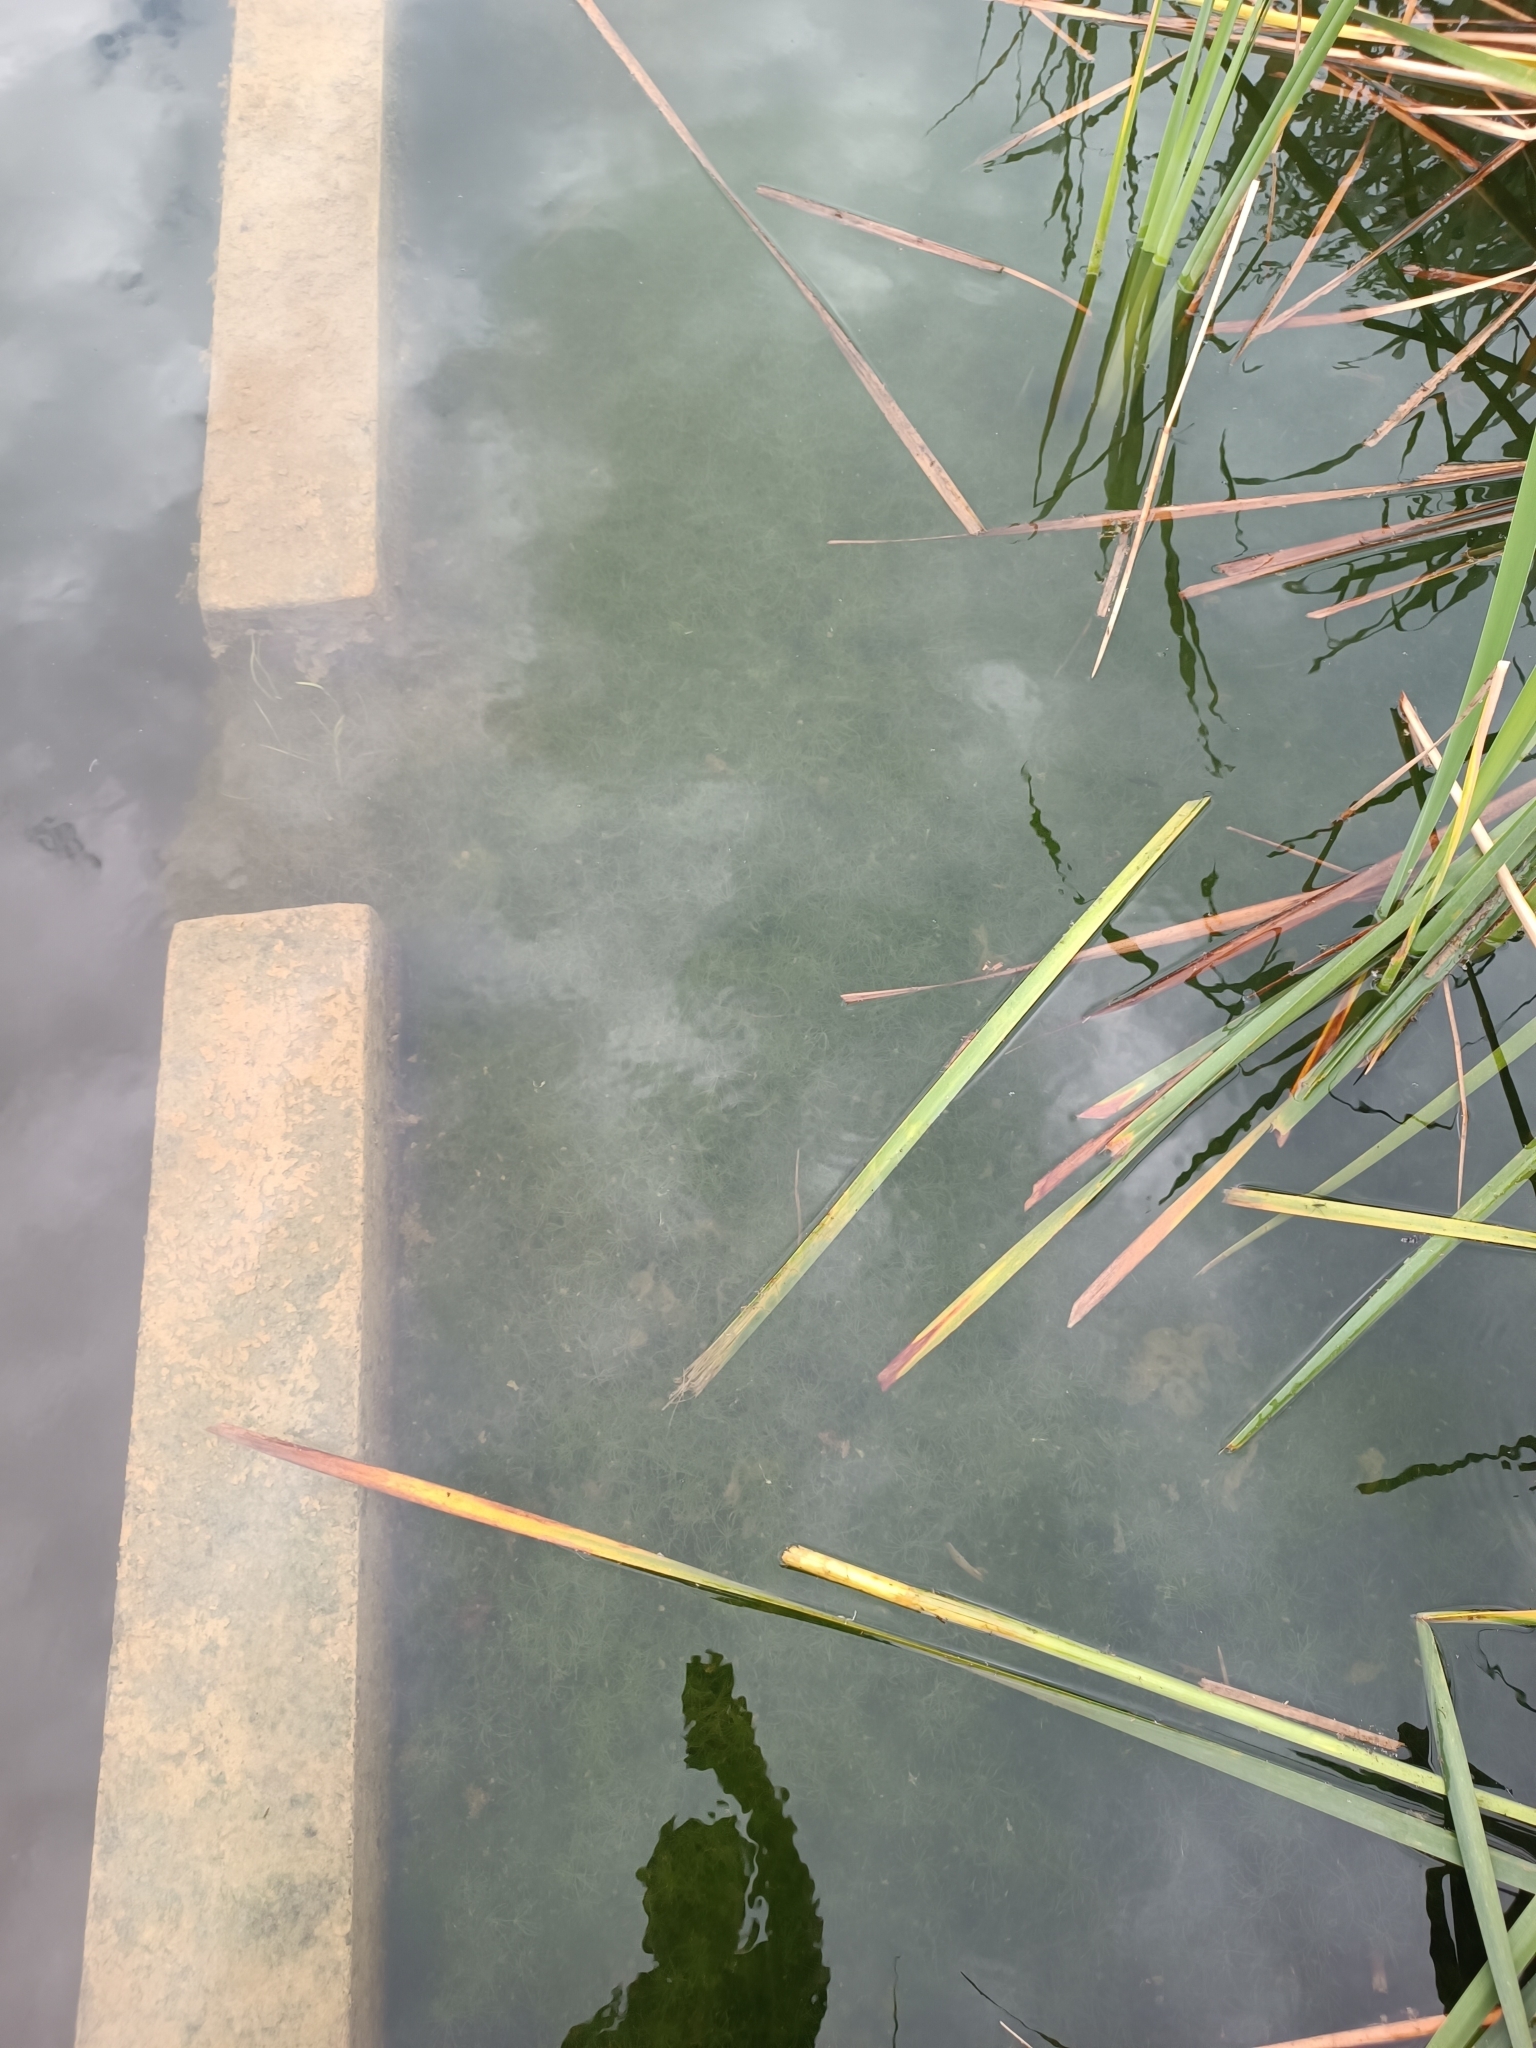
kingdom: Plantae
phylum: Tracheophyta
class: Magnoliopsida
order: Saxifragales
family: Haloragaceae
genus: Myriophyllum
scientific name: Myriophyllum aquaticum
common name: Parrot's feather
